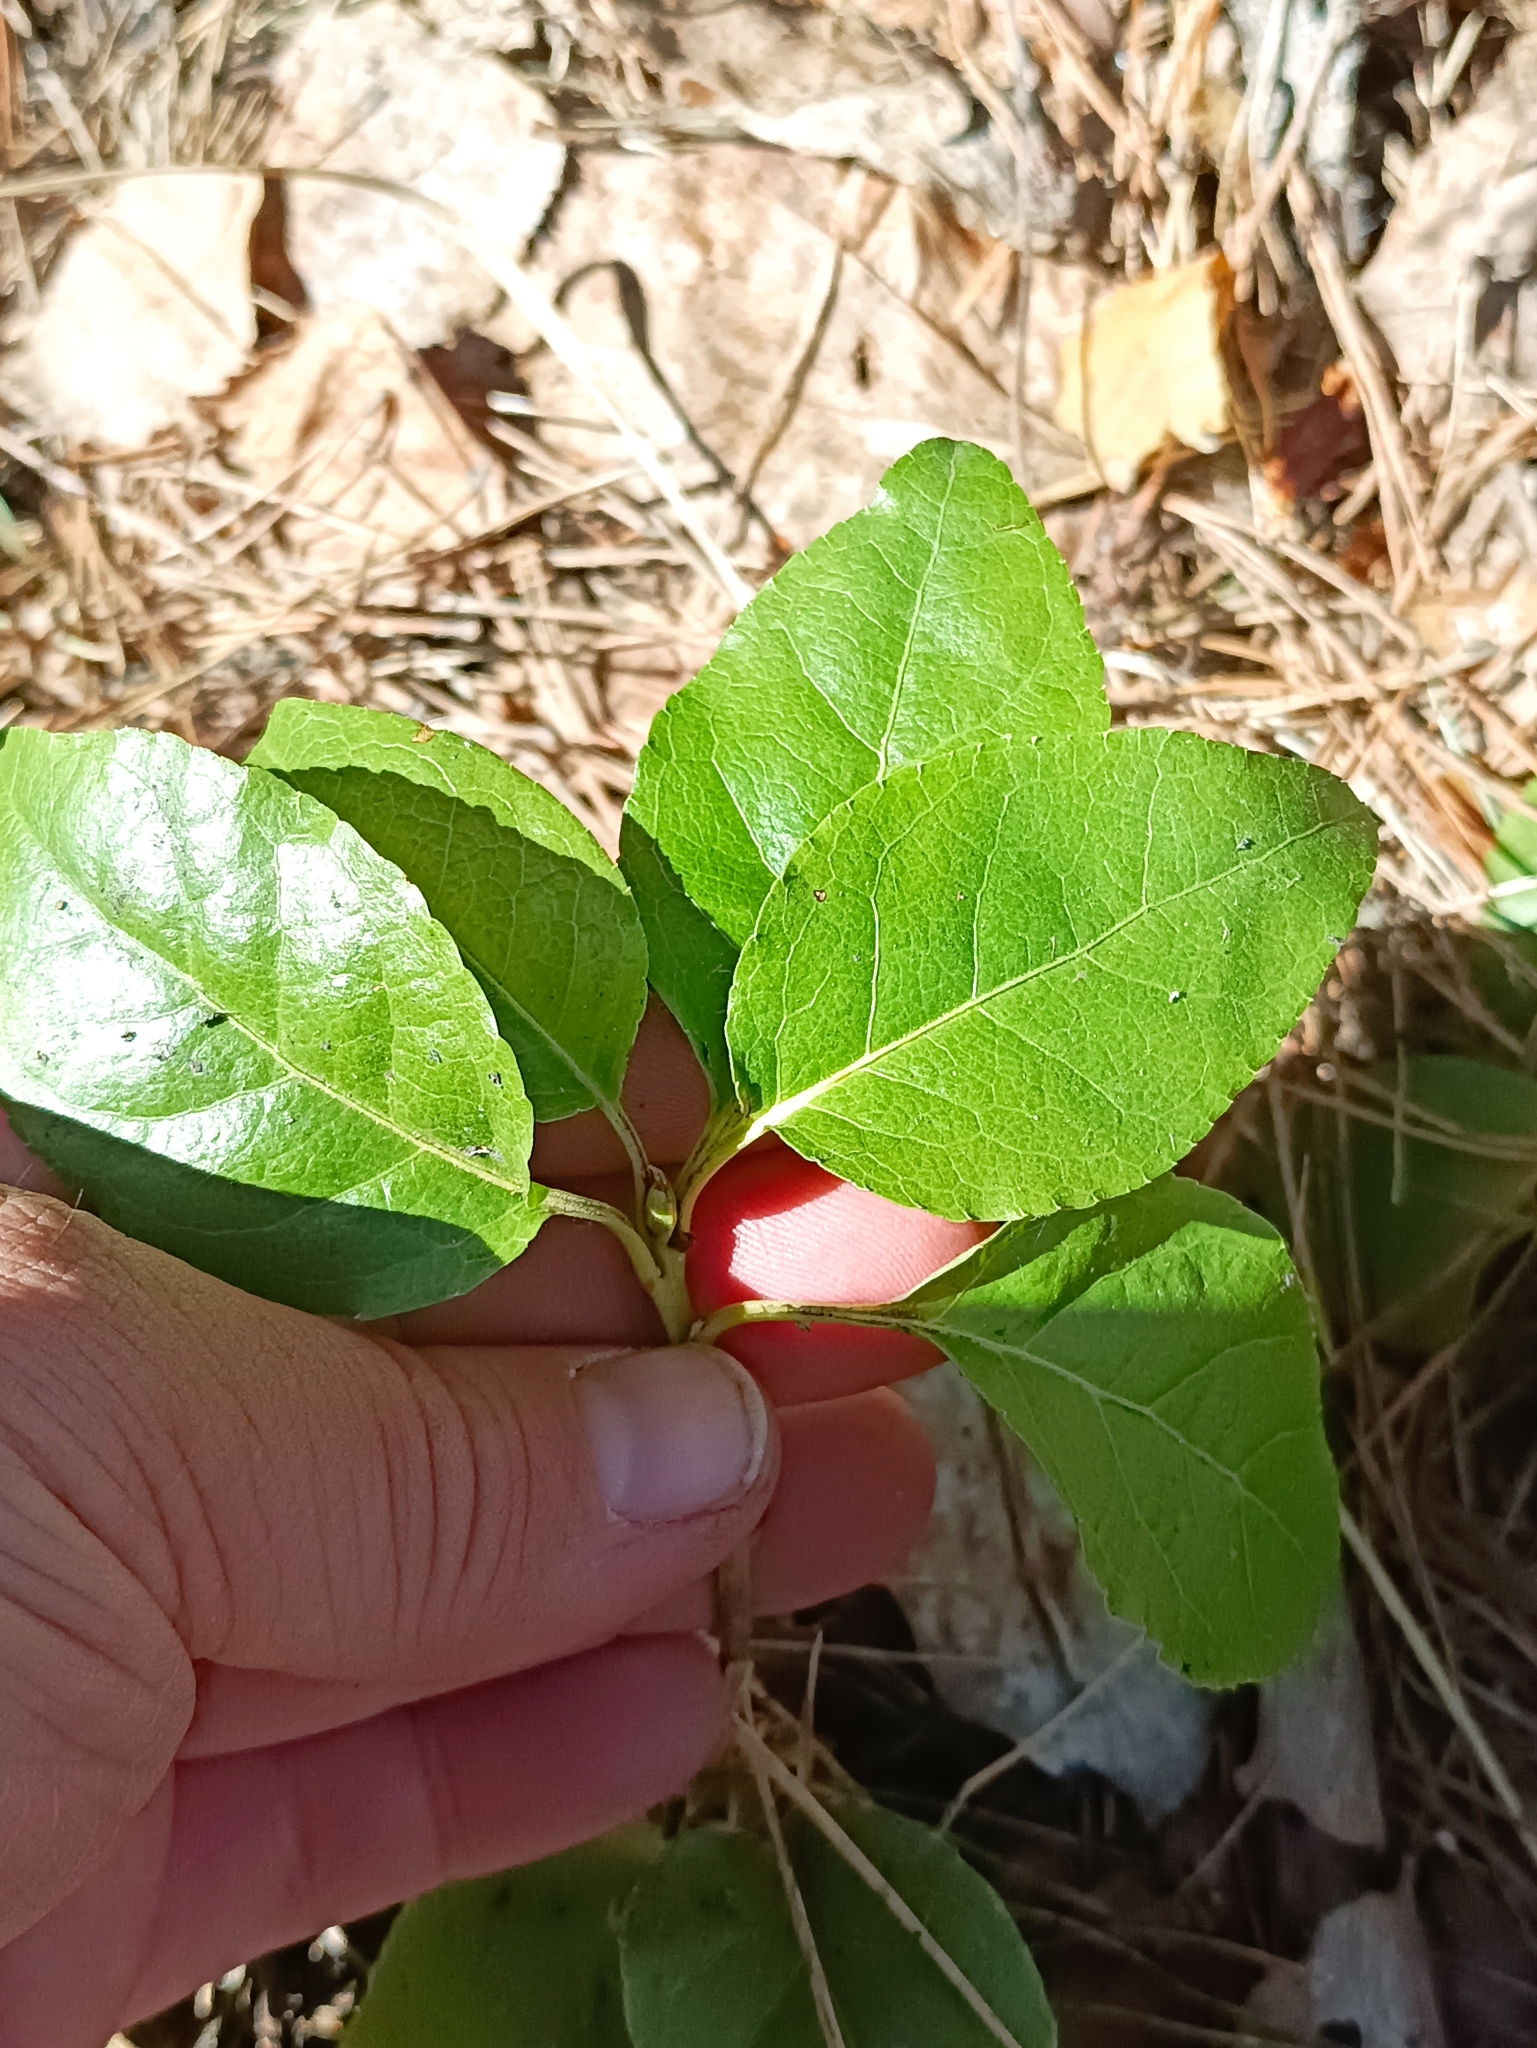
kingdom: Plantae
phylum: Tracheophyta
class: Magnoliopsida
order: Ericales
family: Ericaceae
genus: Orthilia
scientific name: Orthilia secunda
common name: One-sided orthilia
